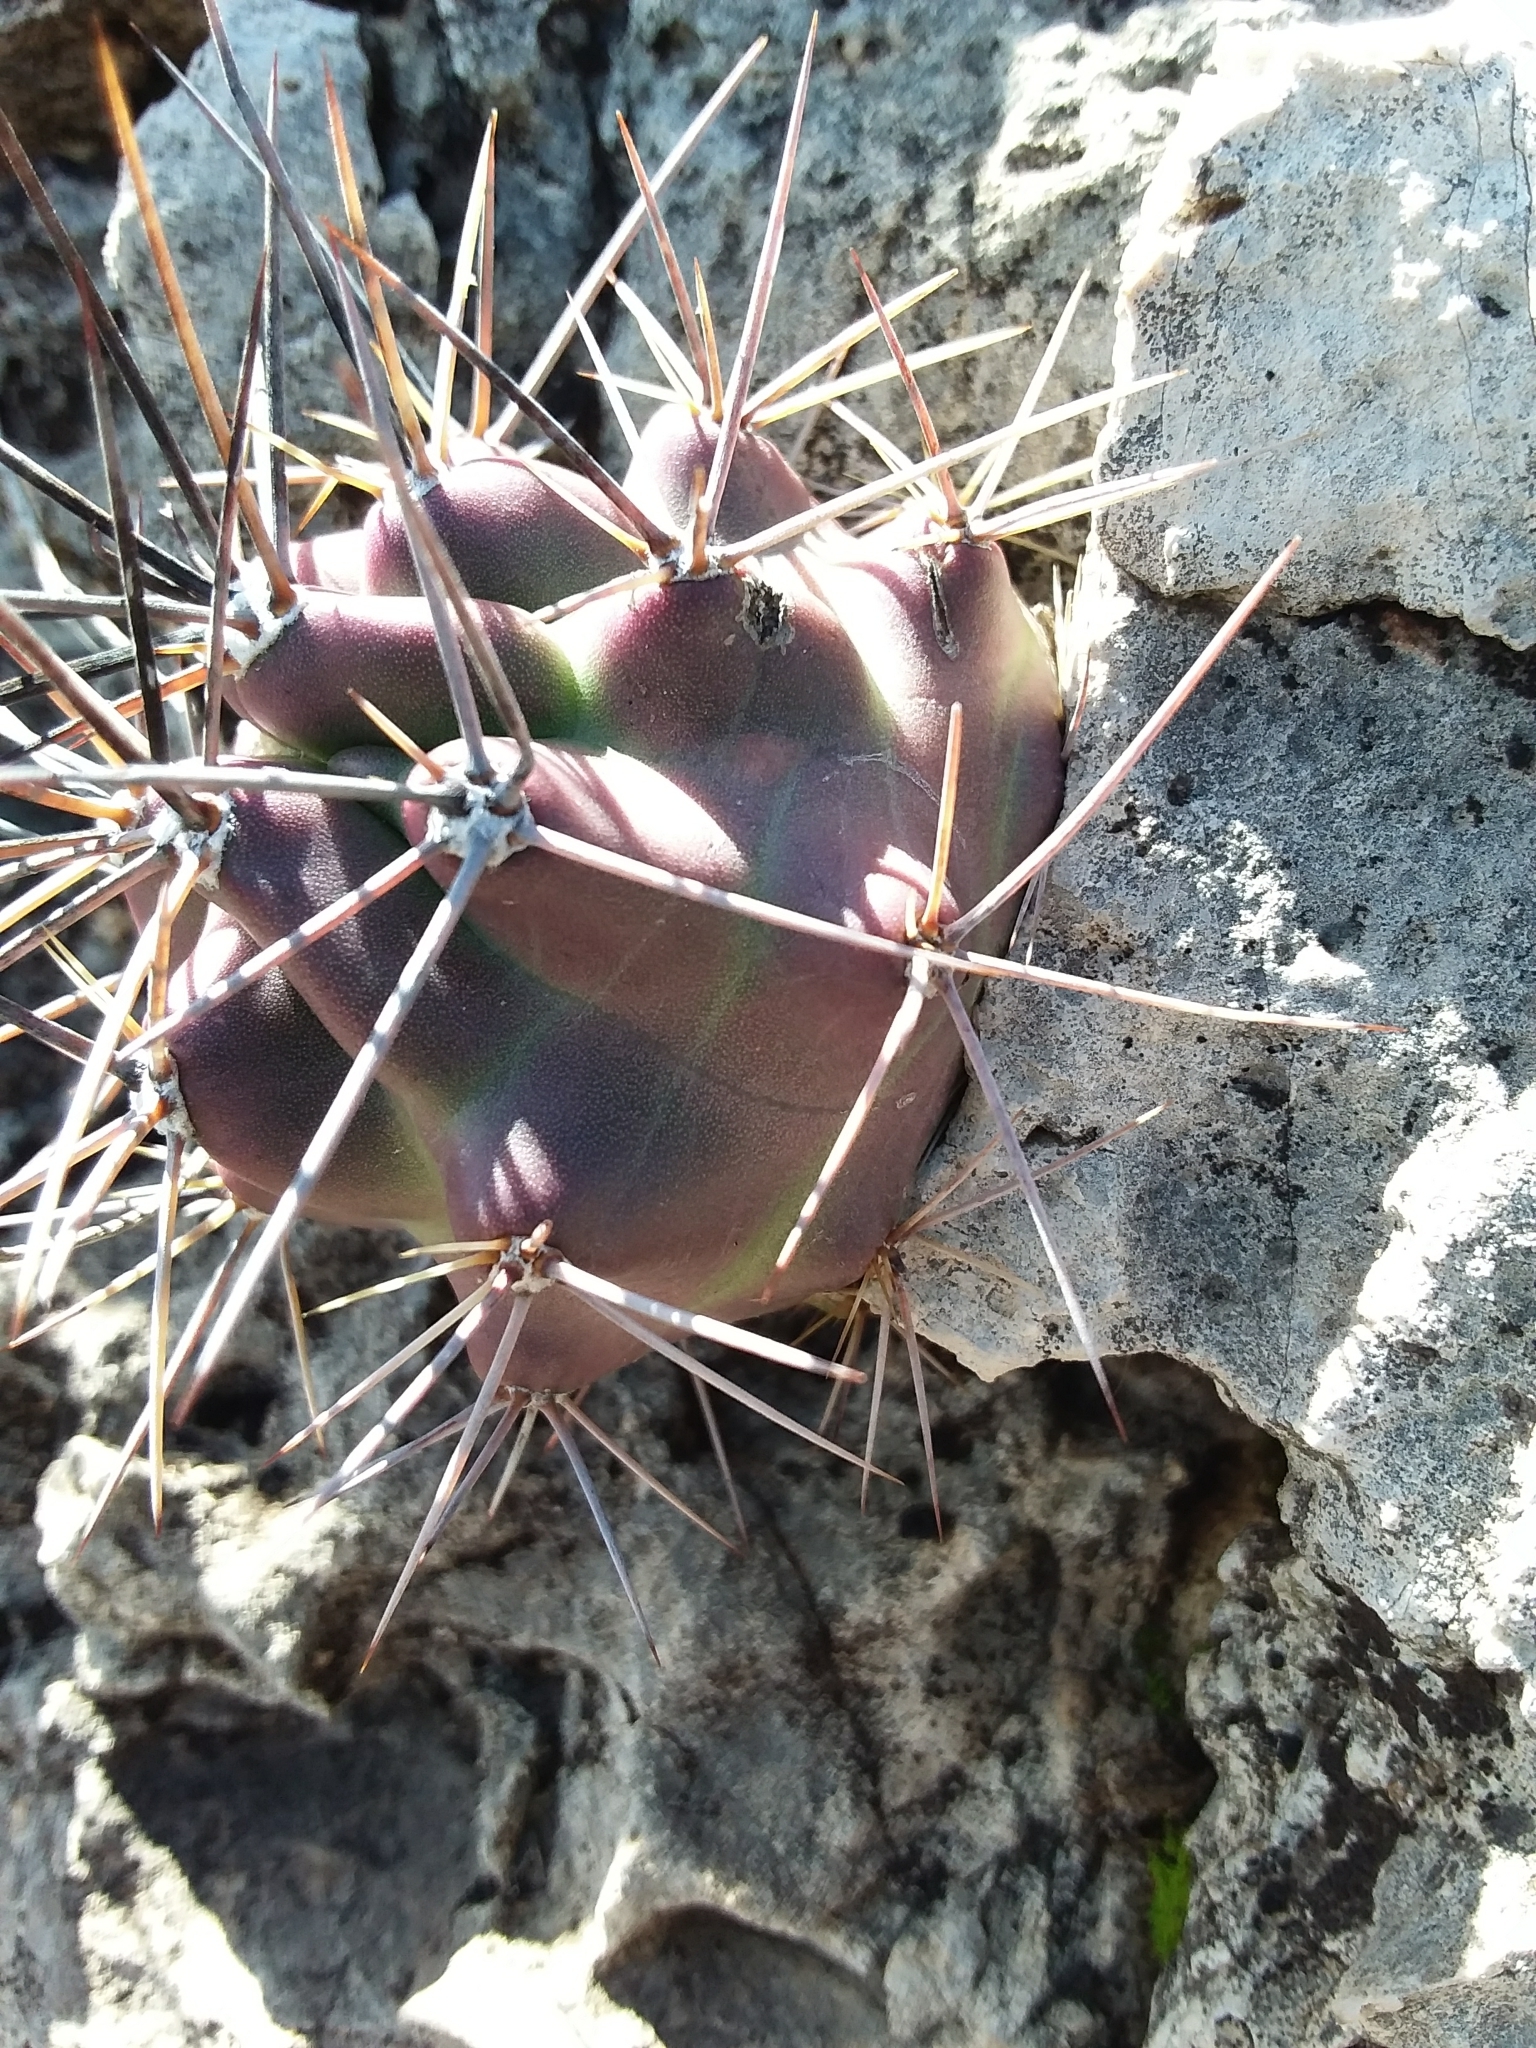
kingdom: Plantae
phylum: Tracheophyta
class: Magnoliopsida
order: Caryophyllales
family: Cactaceae
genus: Echinocereus
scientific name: Echinocereus coccineus
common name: Scarlet hedgehog cactus
